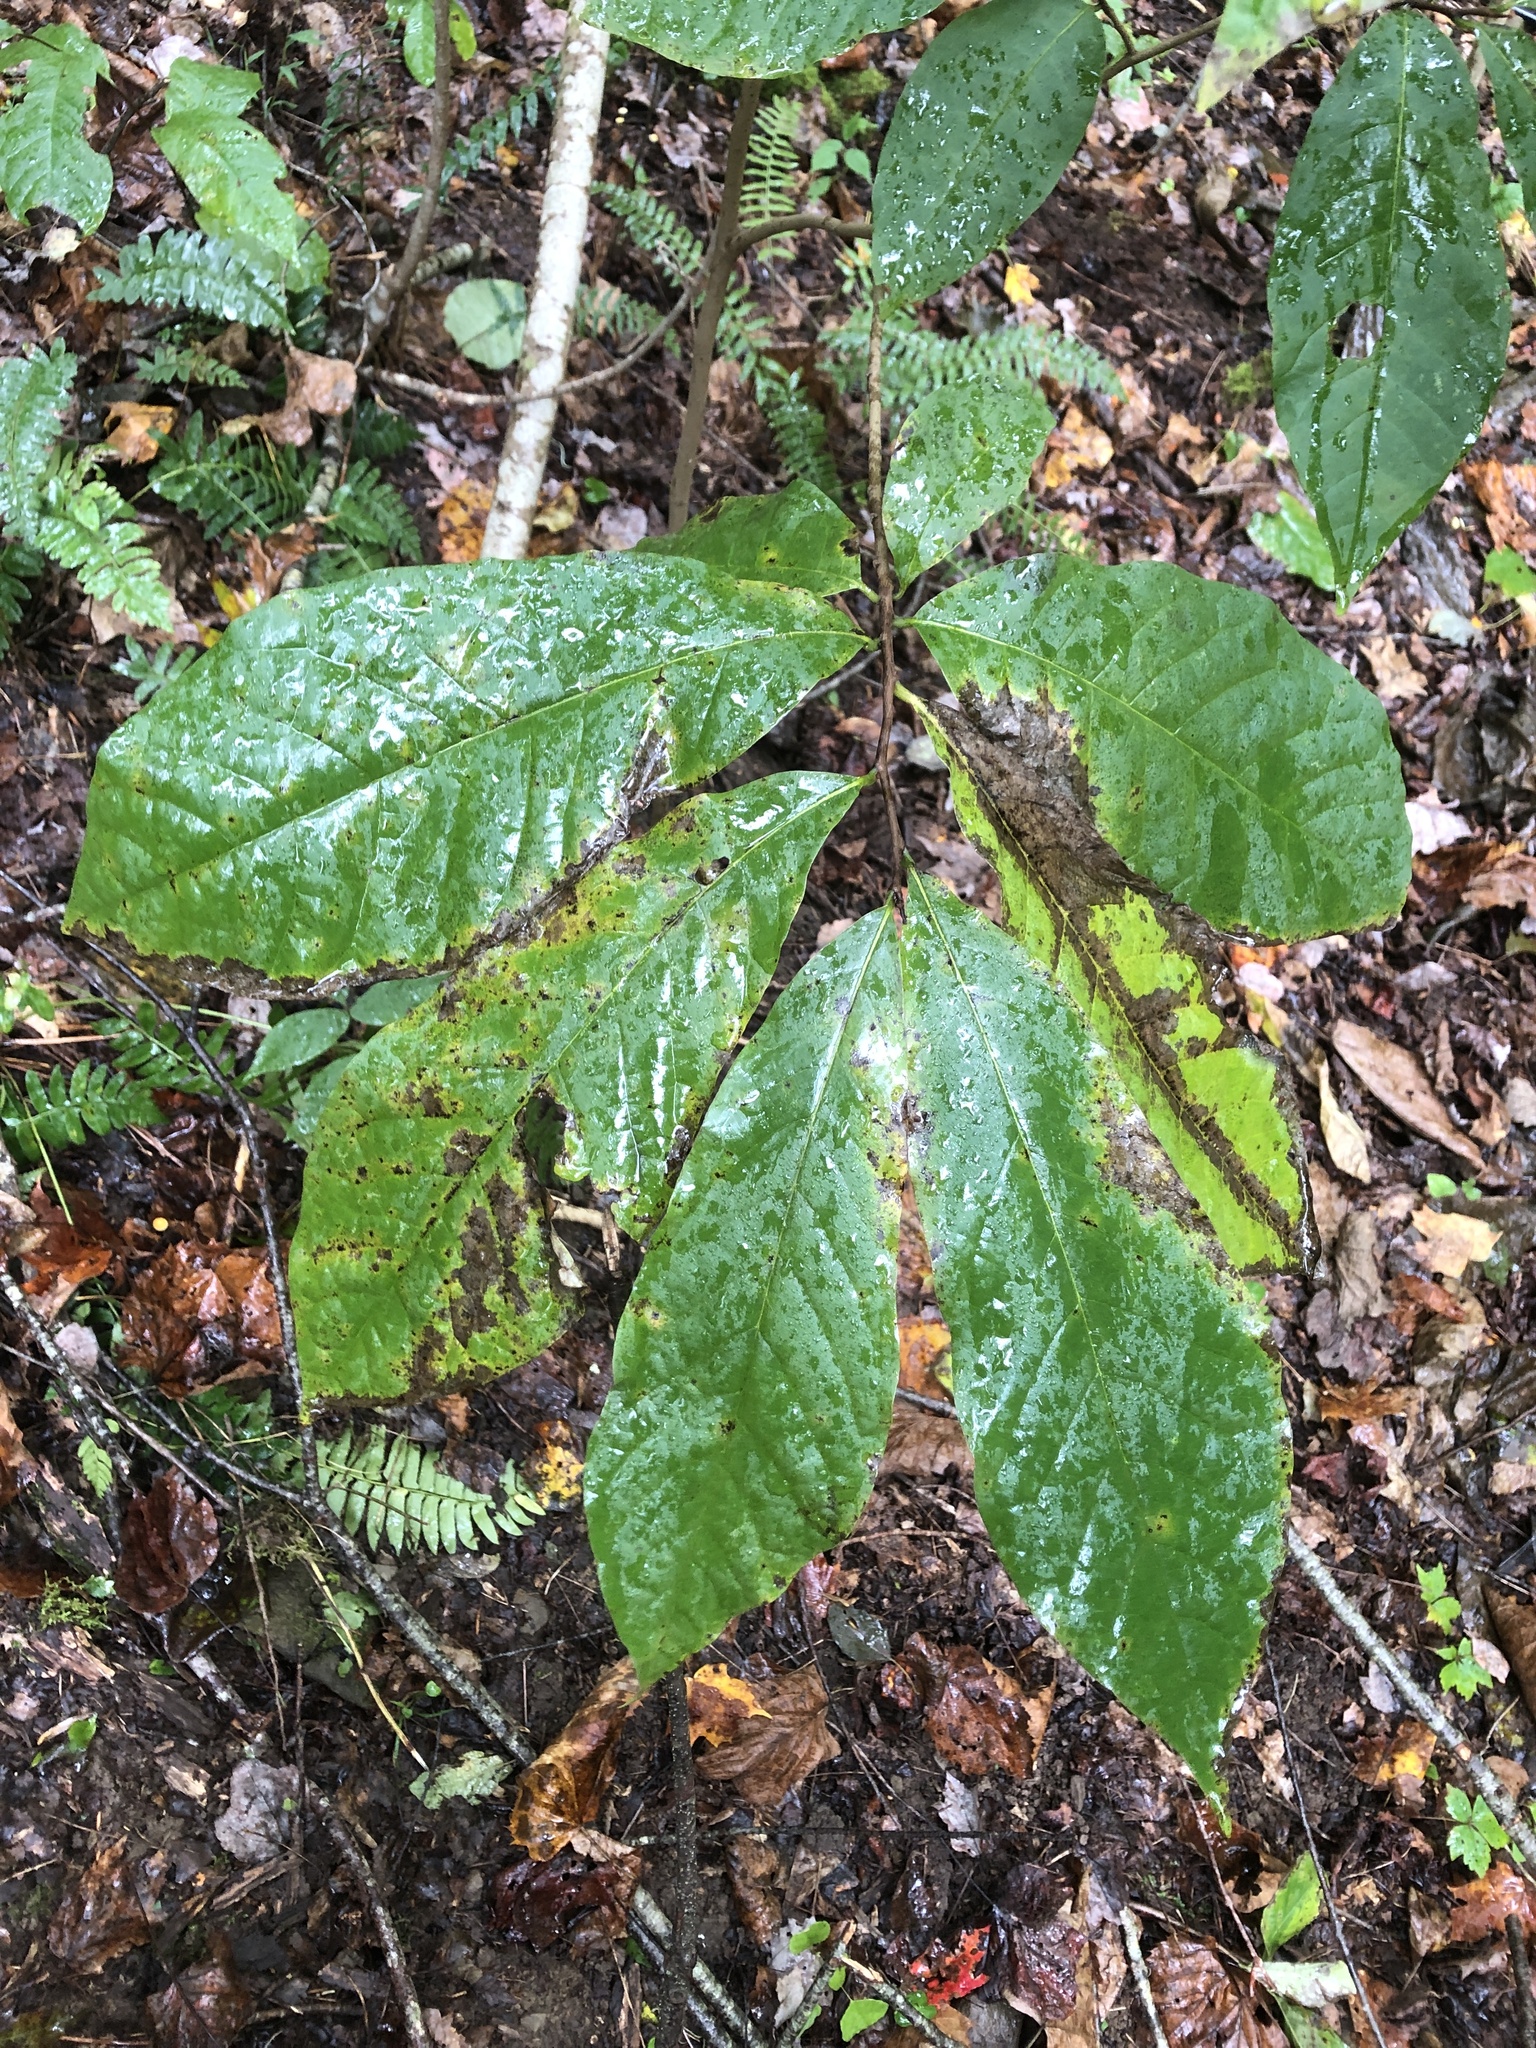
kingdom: Plantae
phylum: Tracheophyta
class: Magnoliopsida
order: Magnoliales
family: Annonaceae
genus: Asimina
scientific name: Asimina triloba
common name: Dog-banana
